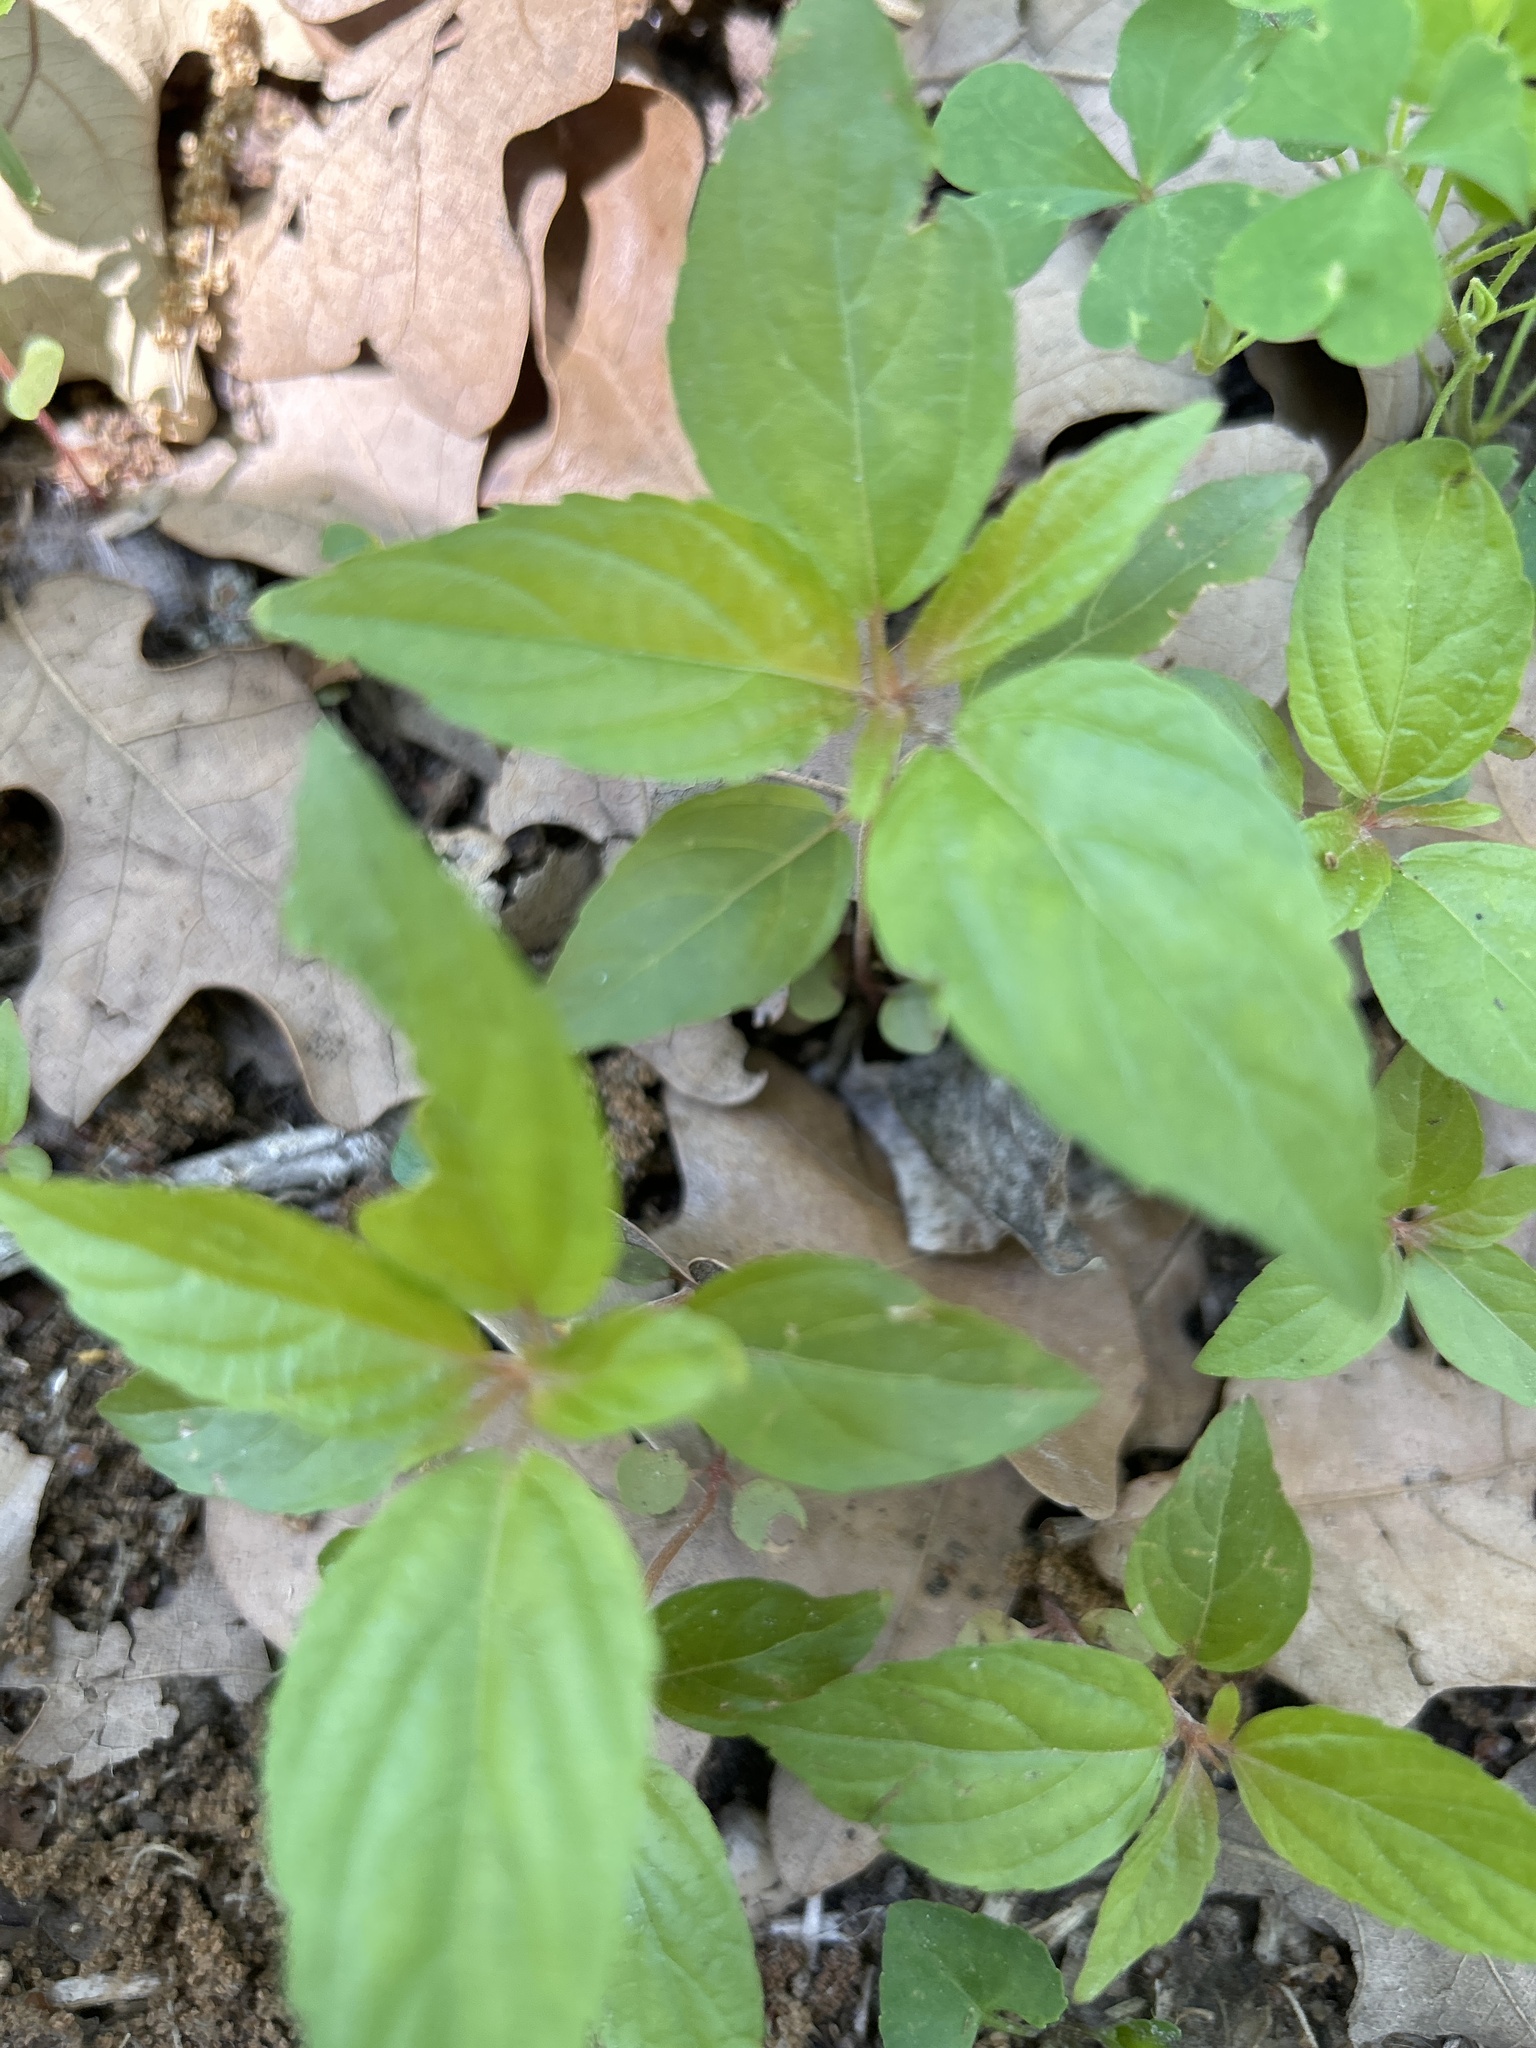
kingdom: Plantae
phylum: Tracheophyta
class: Magnoliopsida
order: Malpighiales
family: Euphorbiaceae
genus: Acalypha
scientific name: Acalypha virginica
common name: Virginia copperleaf
